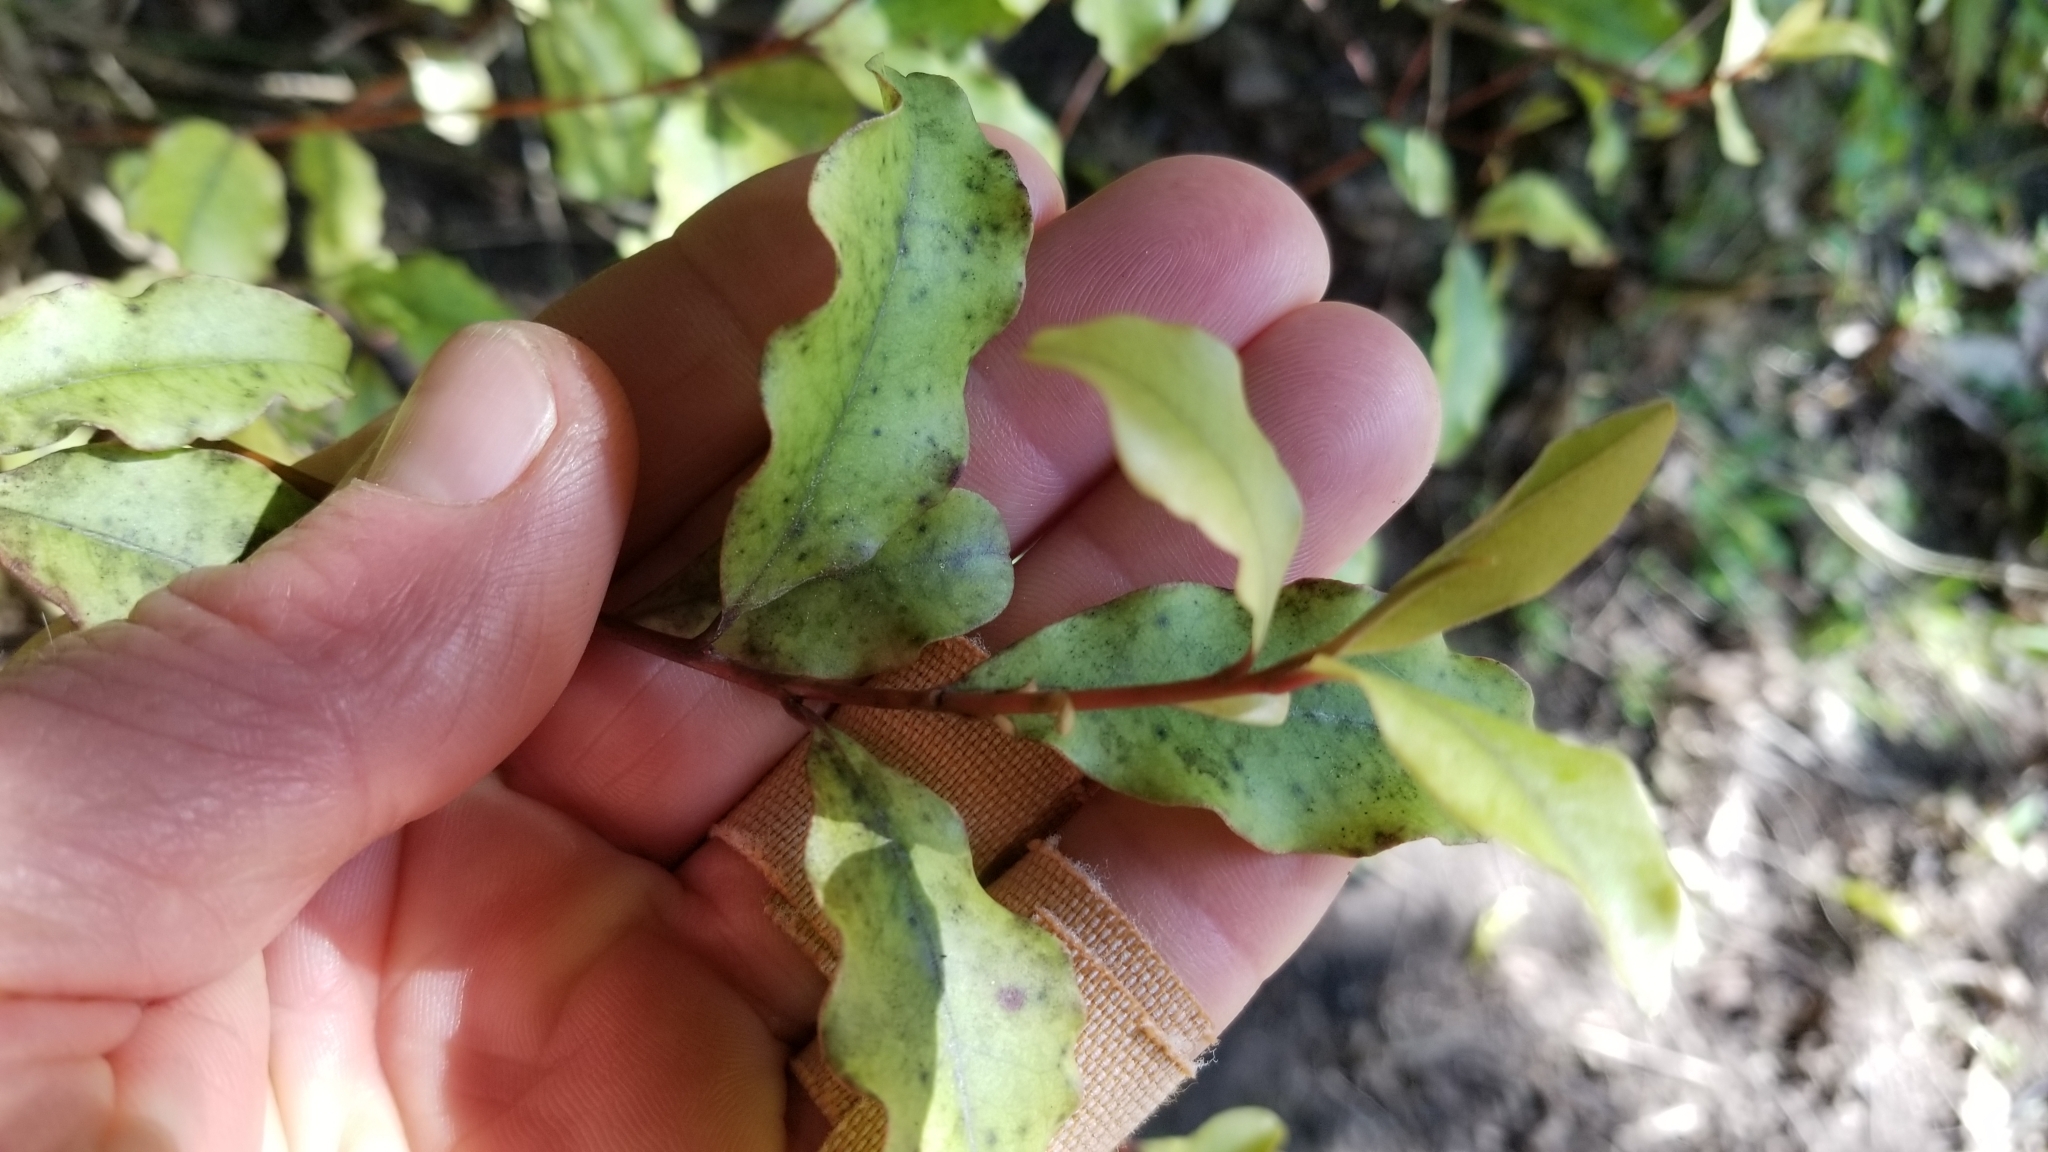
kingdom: Plantae
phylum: Tracheophyta
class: Magnoliopsida
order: Ericales
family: Primulaceae
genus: Myrsine
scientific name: Myrsine australis
